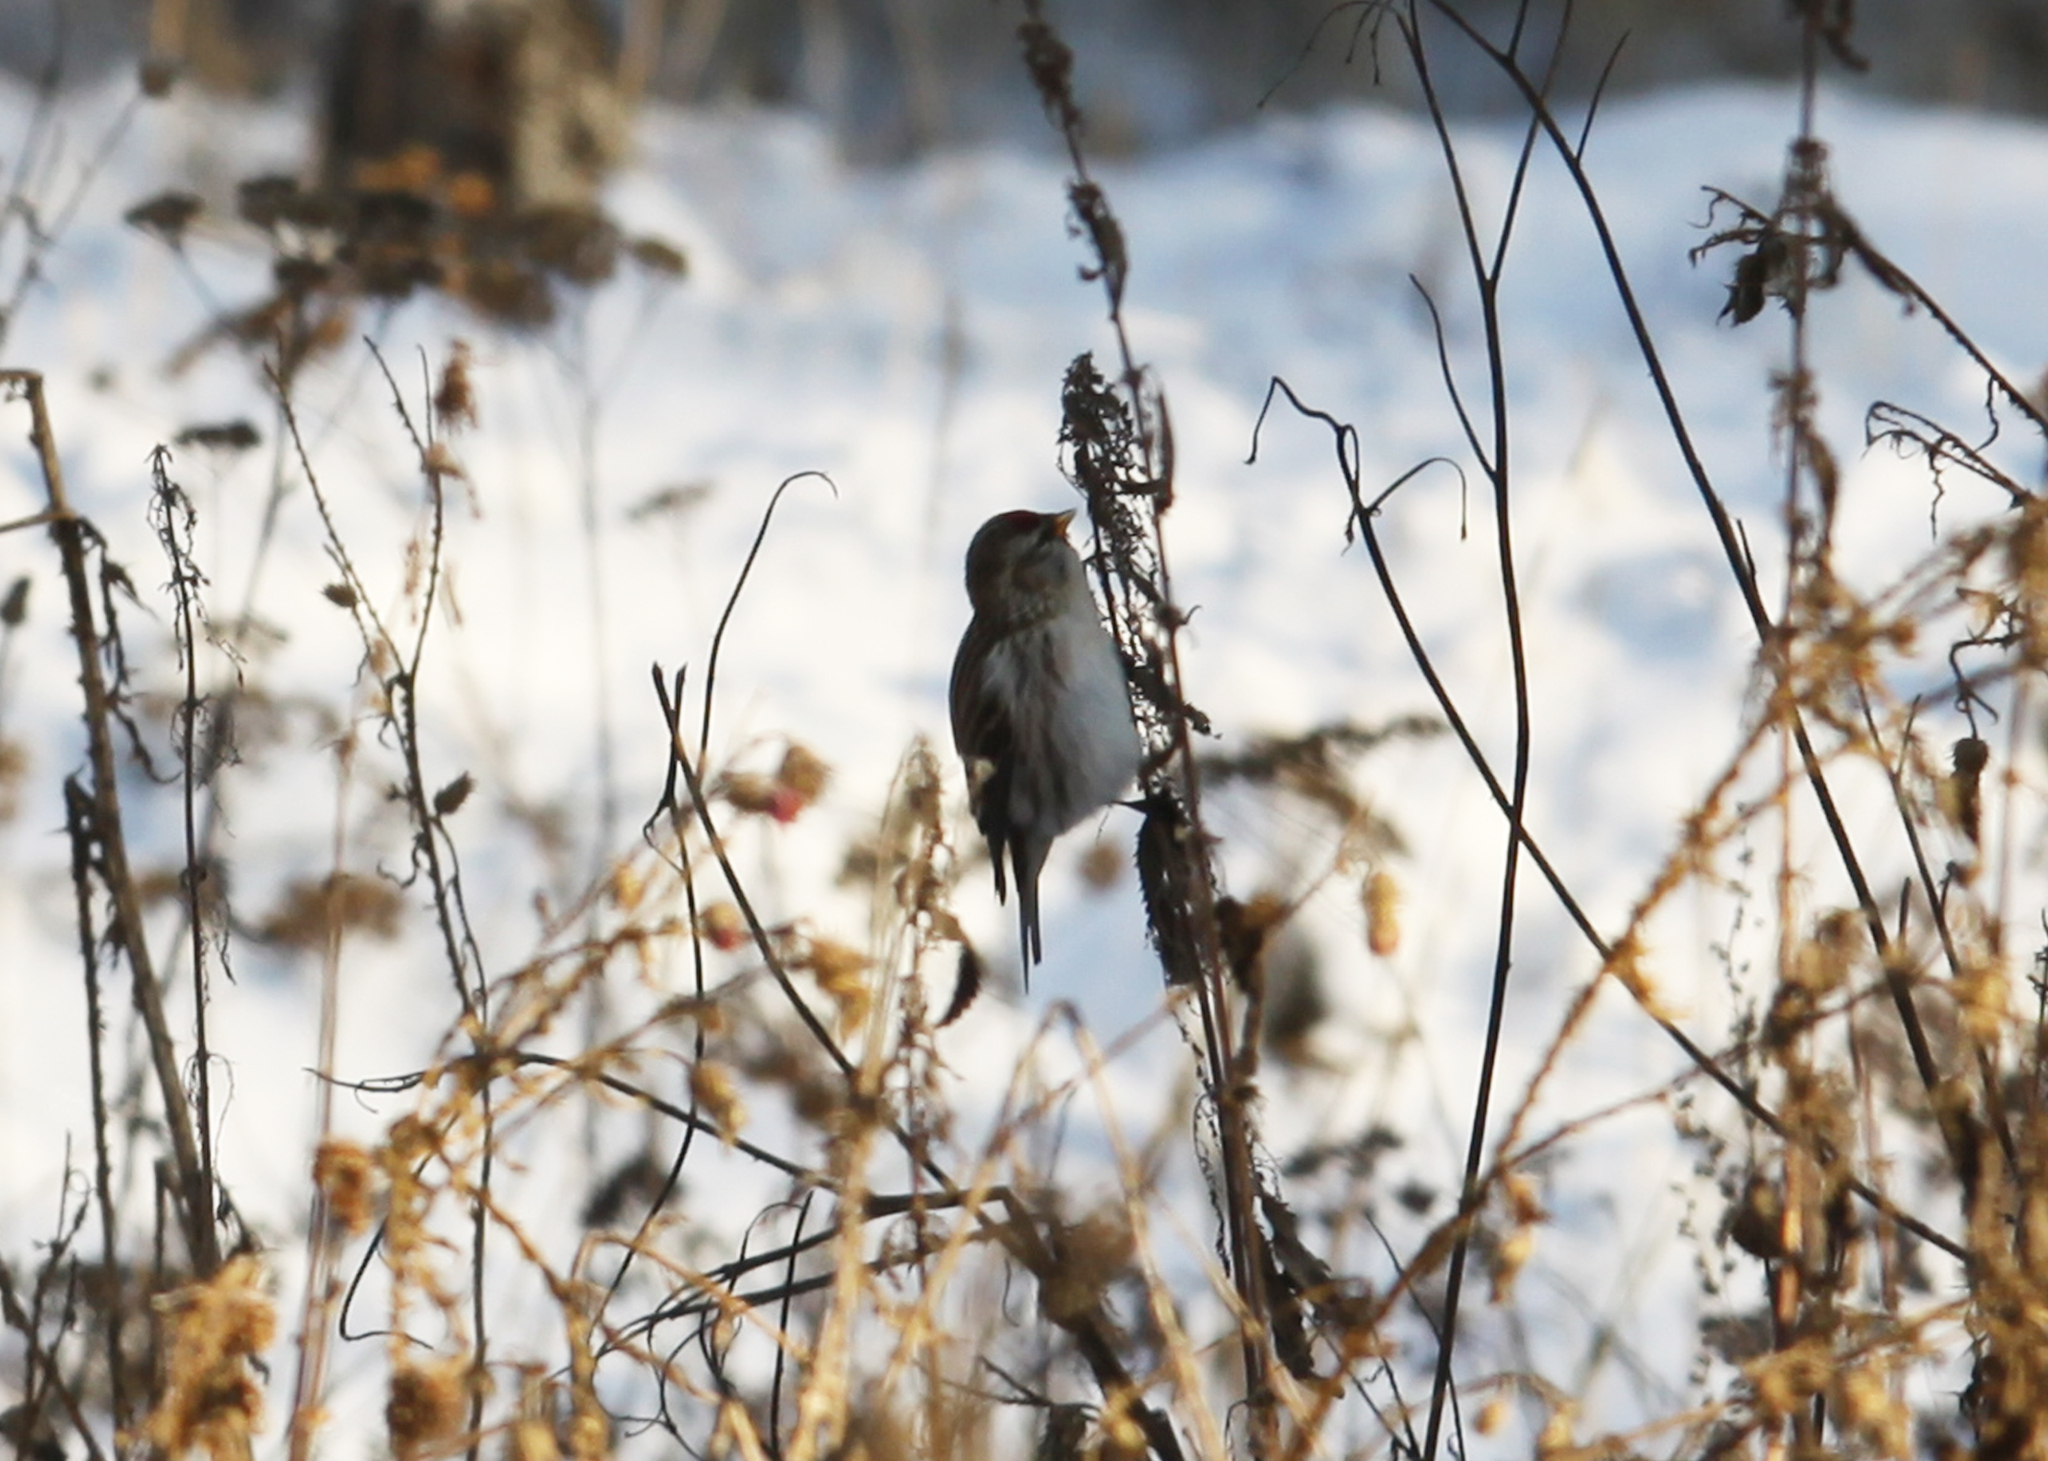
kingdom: Animalia
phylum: Chordata
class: Aves
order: Passeriformes
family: Fringillidae
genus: Acanthis
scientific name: Acanthis flammea
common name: Common redpoll
